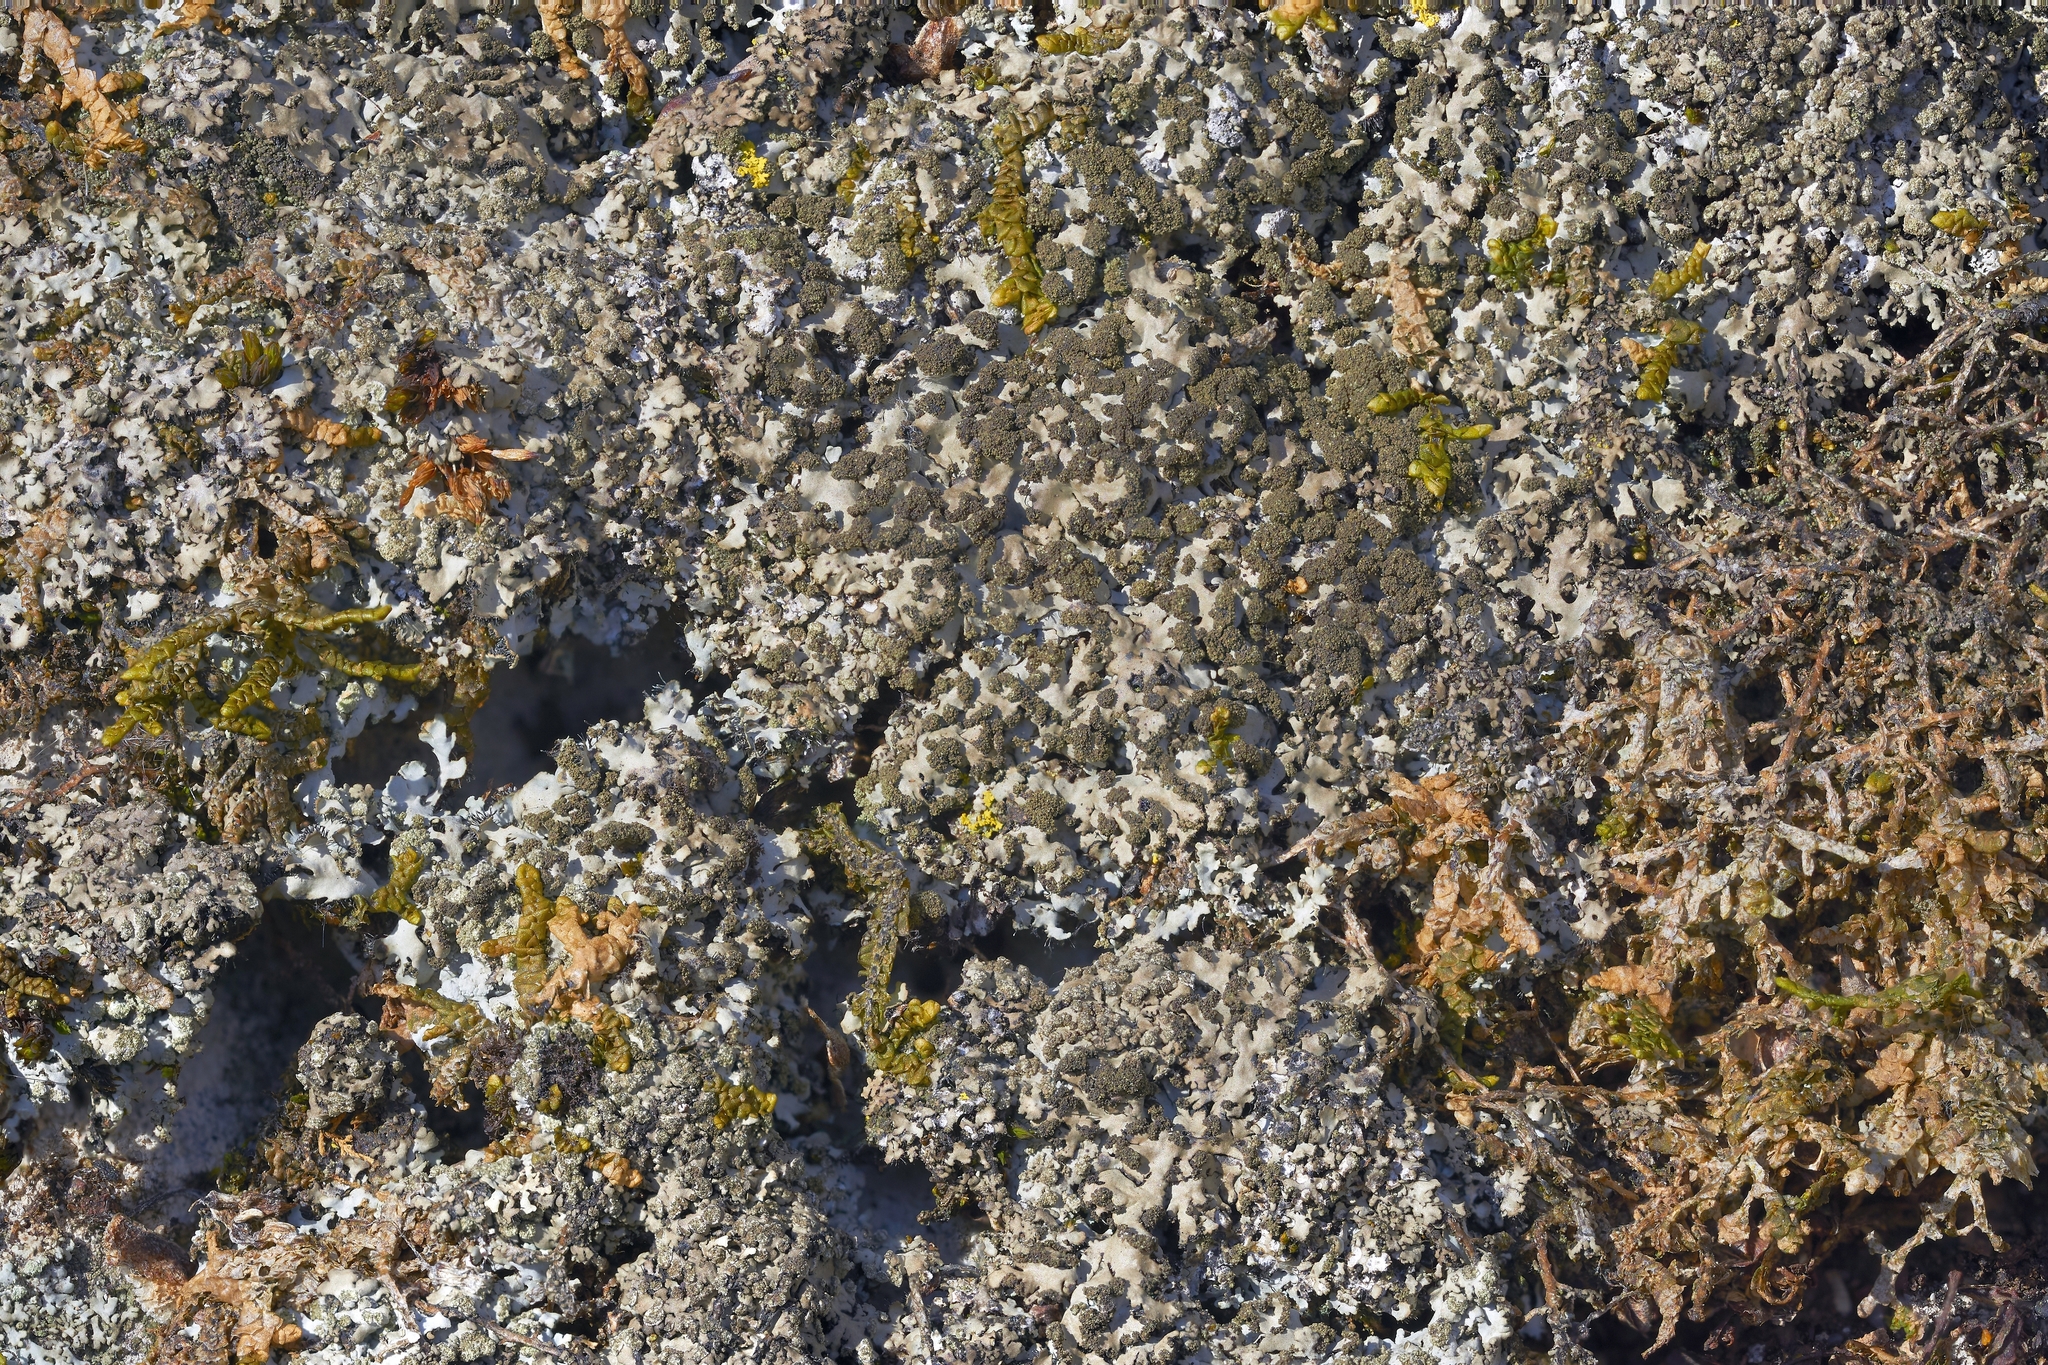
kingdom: Fungi
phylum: Ascomycota
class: Lecanoromycetes
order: Caliciales
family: Physciaceae
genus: Phaeophyscia
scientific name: Phaeophyscia adiastola
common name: Powder-tipped shadow lichen
